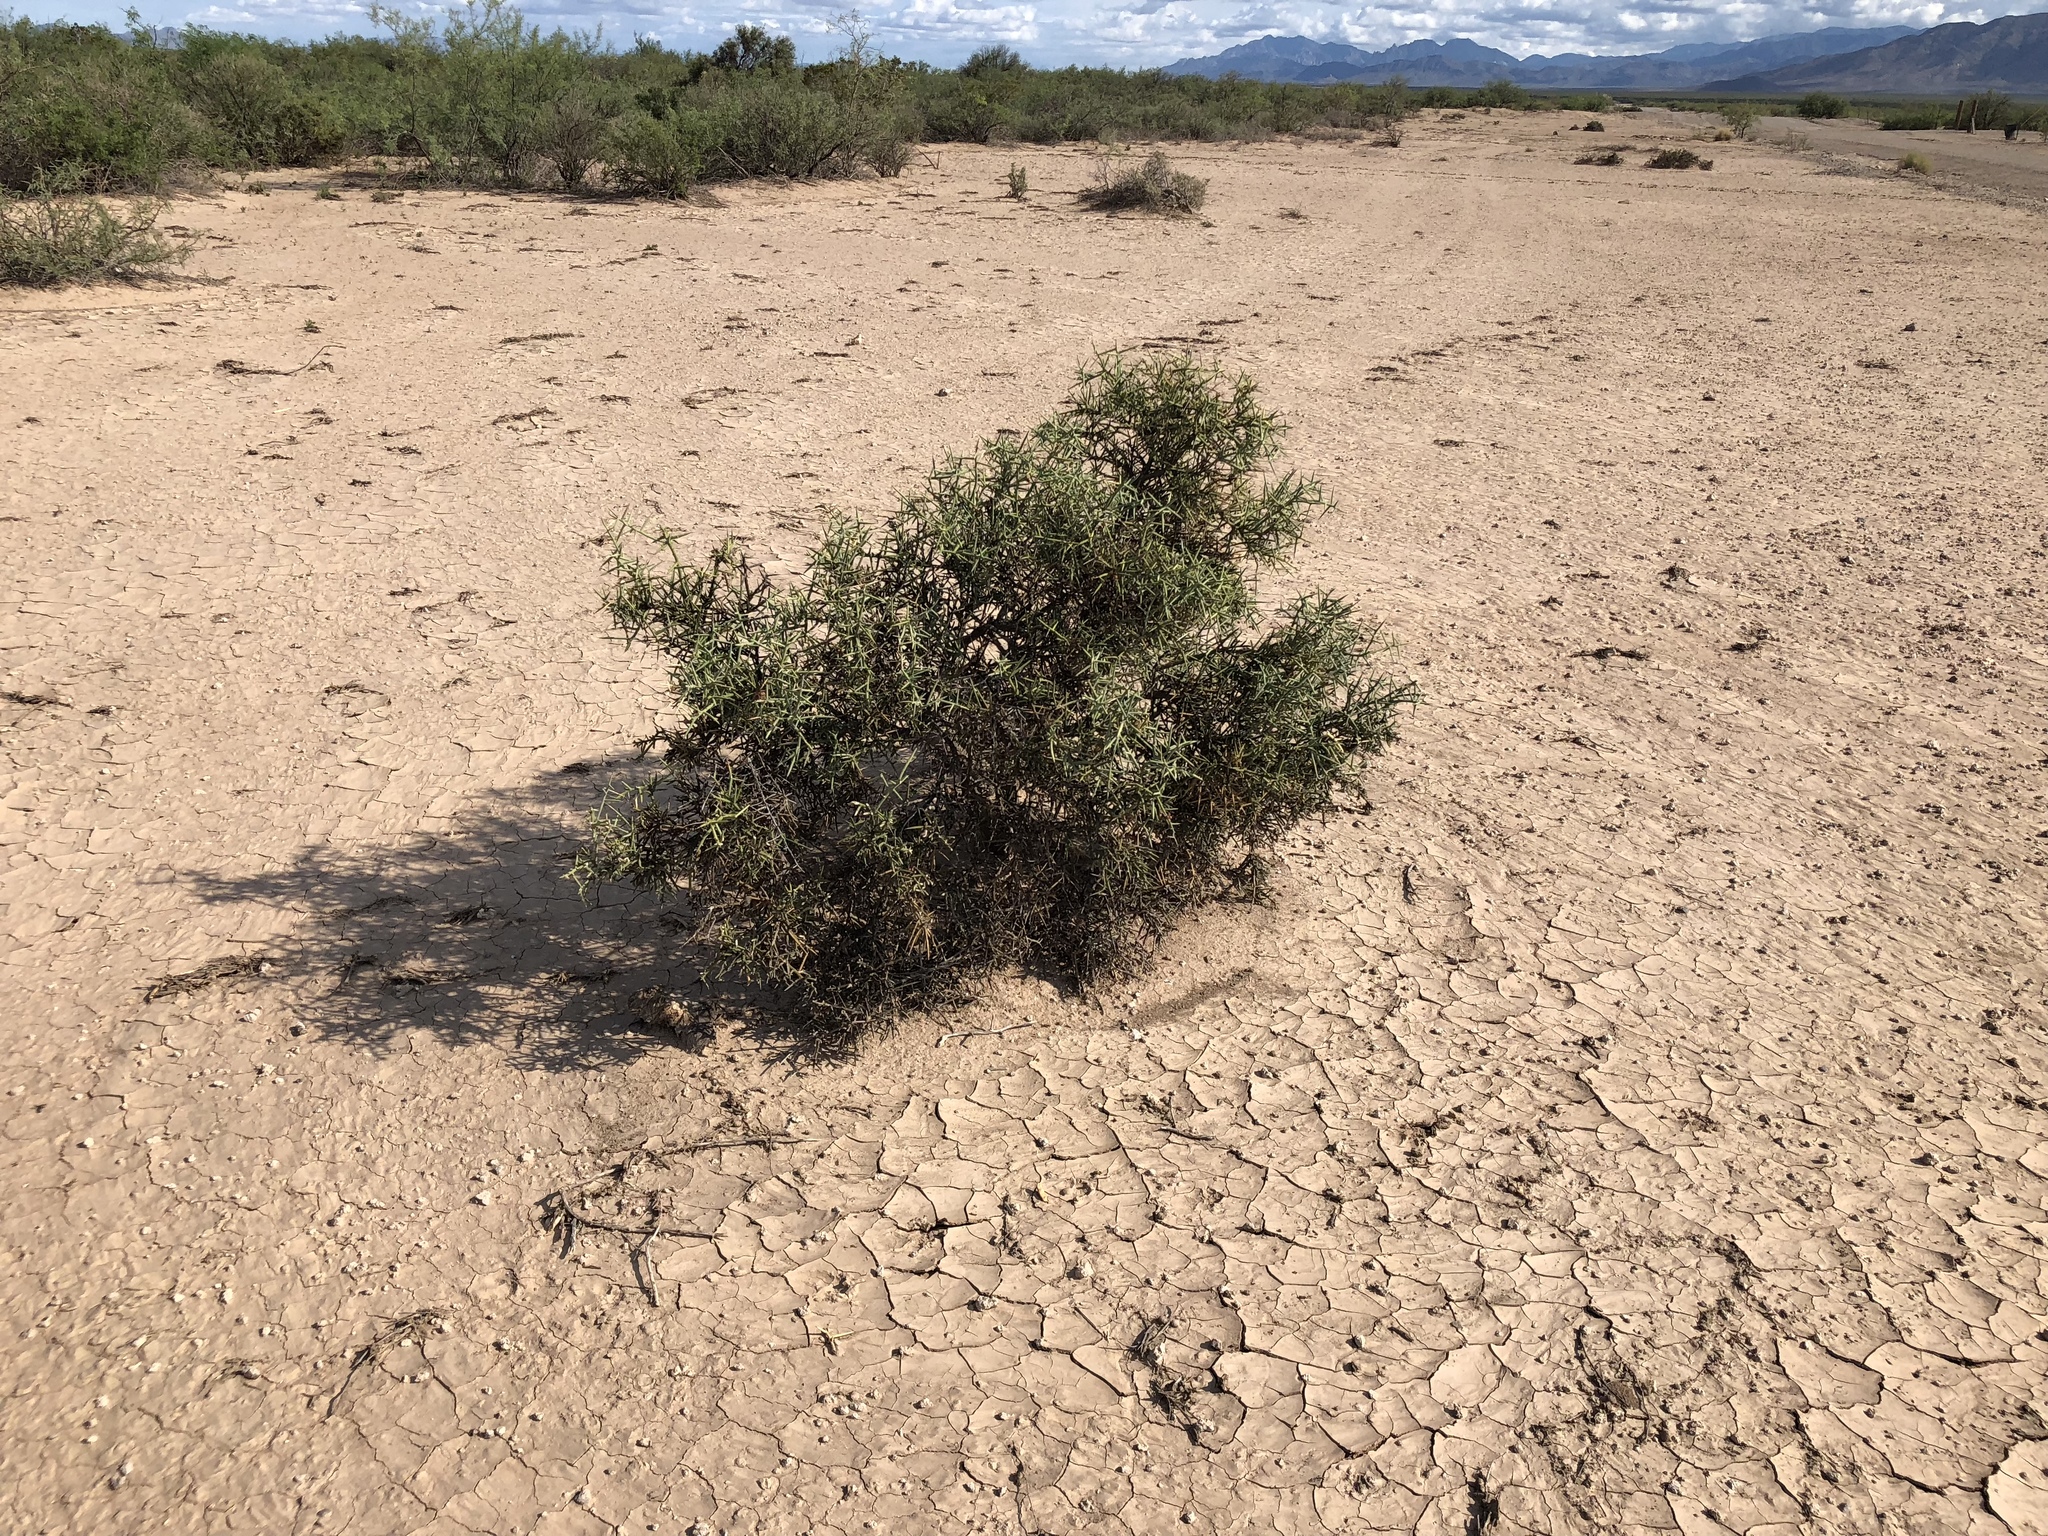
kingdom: Plantae
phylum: Tracheophyta
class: Magnoliopsida
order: Brassicales
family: Koeberliniaceae
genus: Koeberlinia
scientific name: Koeberlinia spinosa
